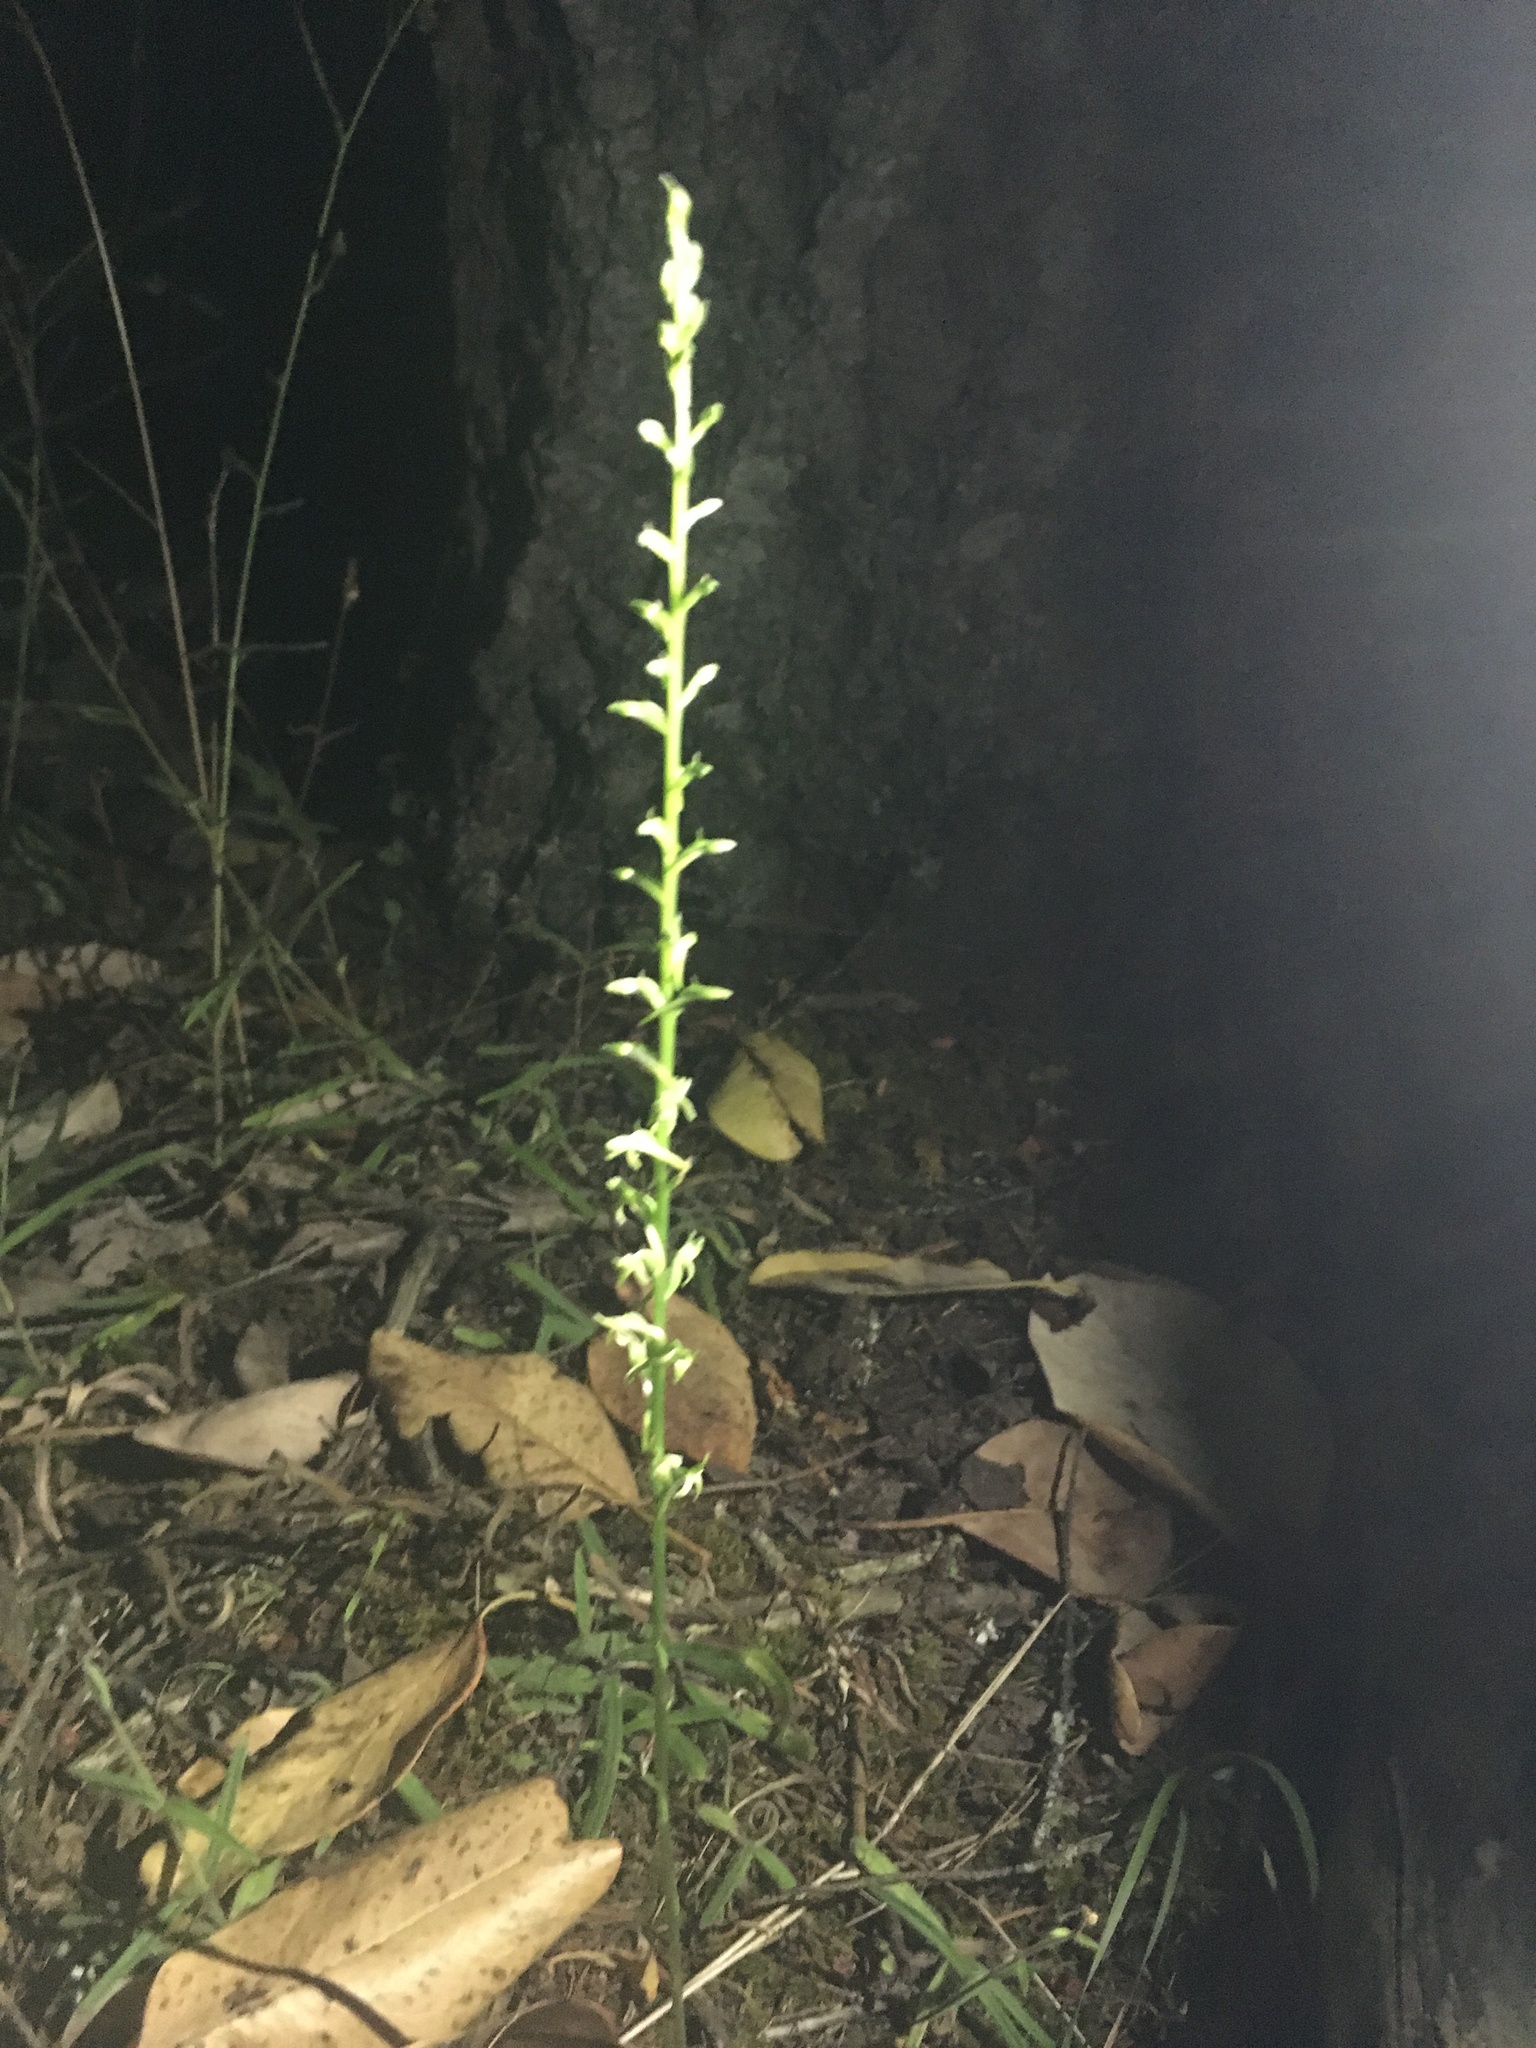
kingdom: Plantae
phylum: Tracheophyta
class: Liliopsida
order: Asparagales
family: Orchidaceae
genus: Platanthera
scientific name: Platanthera elongata
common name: Dense-flowered rein orchid
